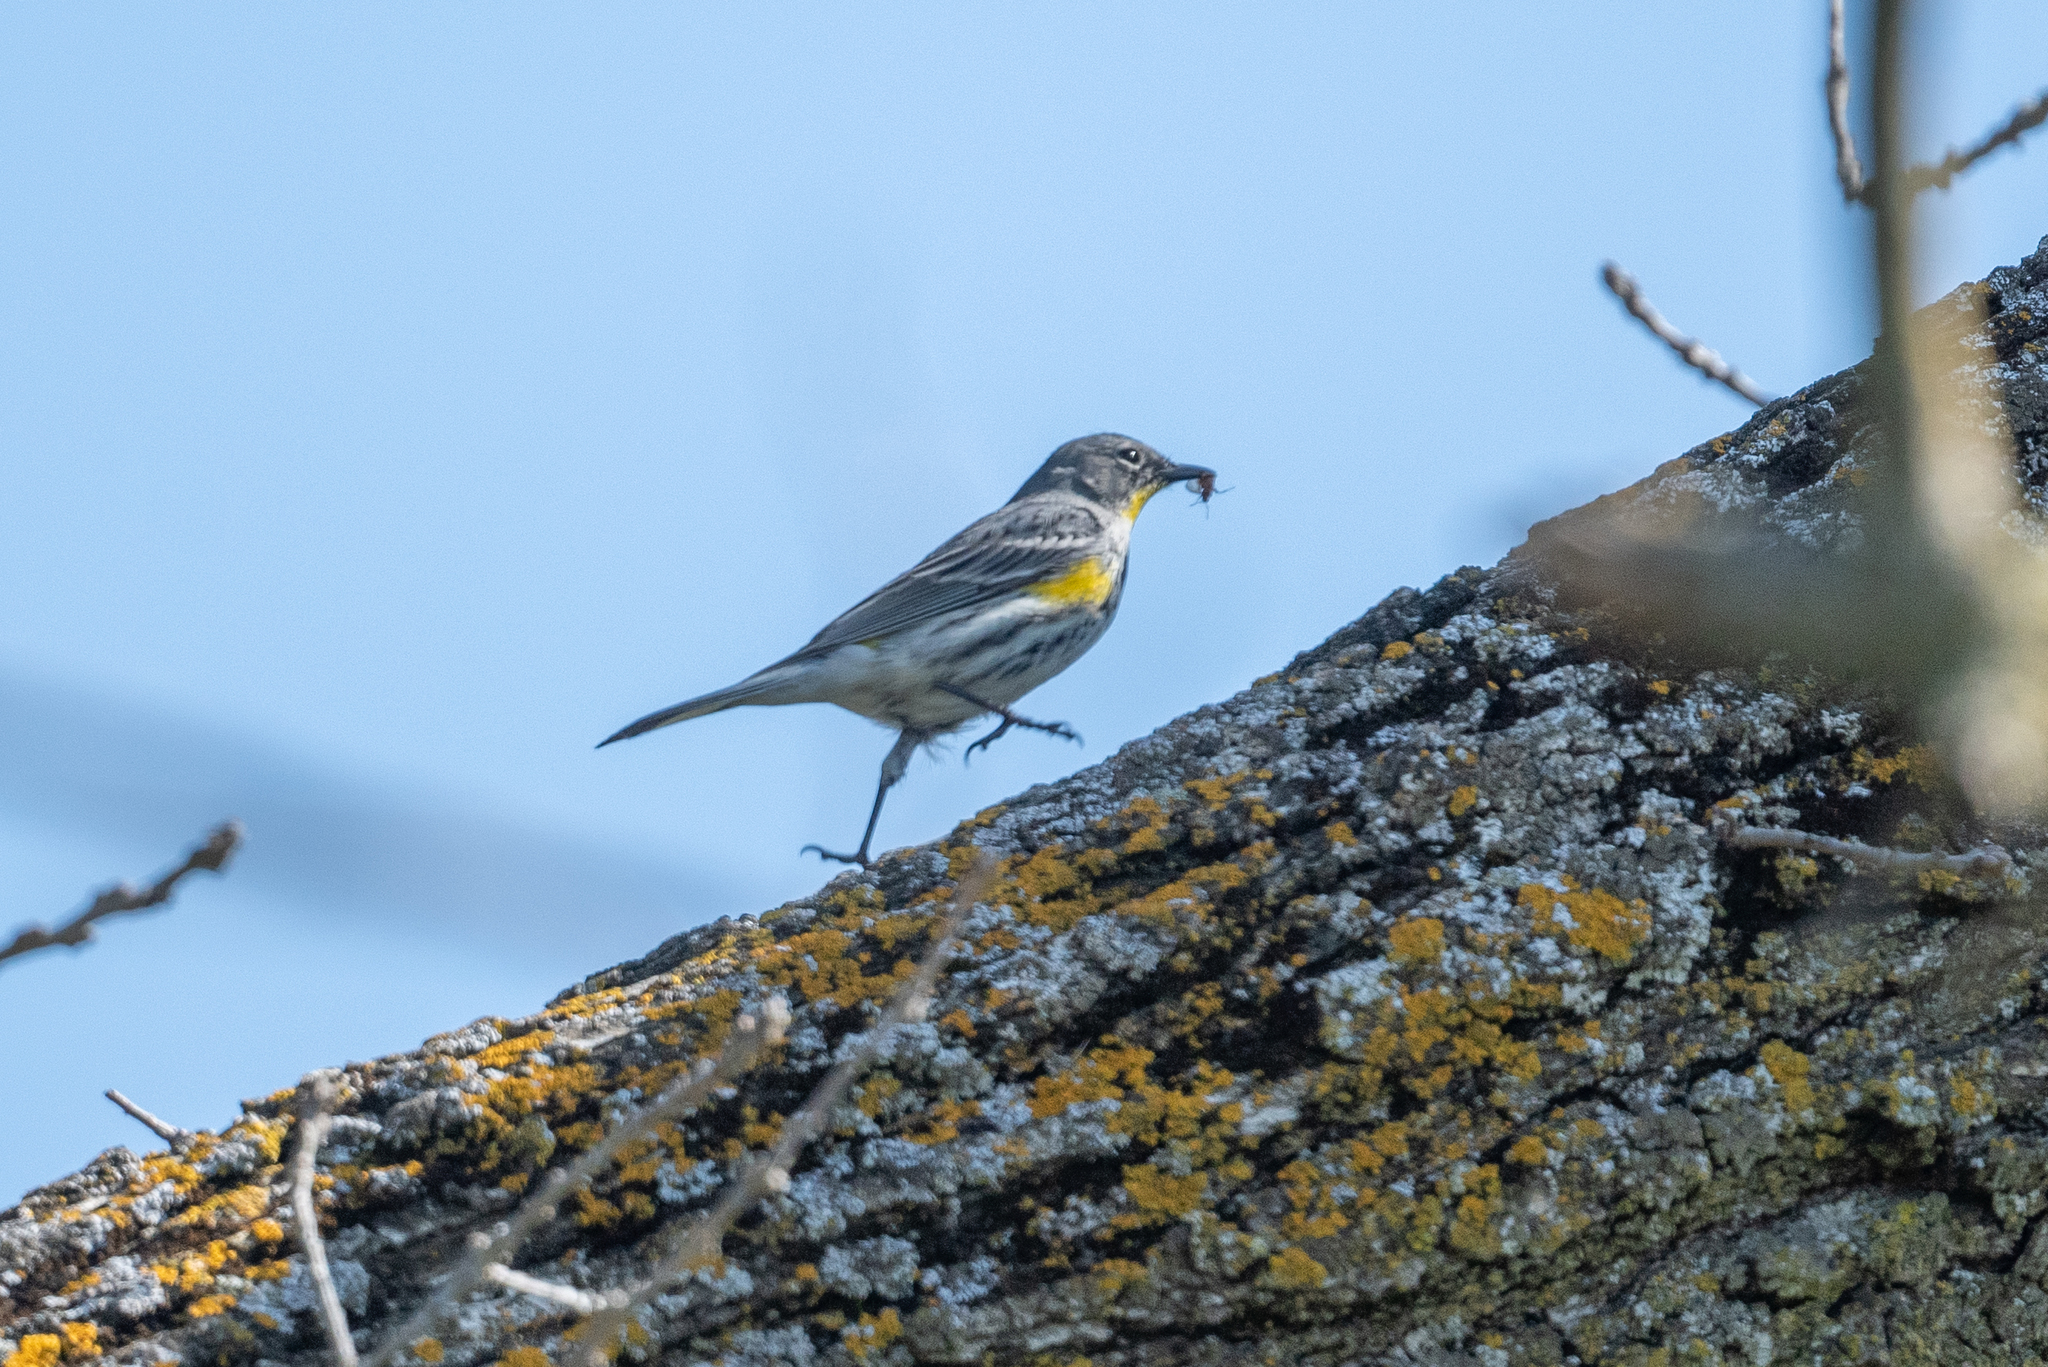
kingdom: Animalia
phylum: Chordata
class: Aves
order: Passeriformes
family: Parulidae
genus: Setophaga
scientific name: Setophaga coronata
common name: Myrtle warbler
